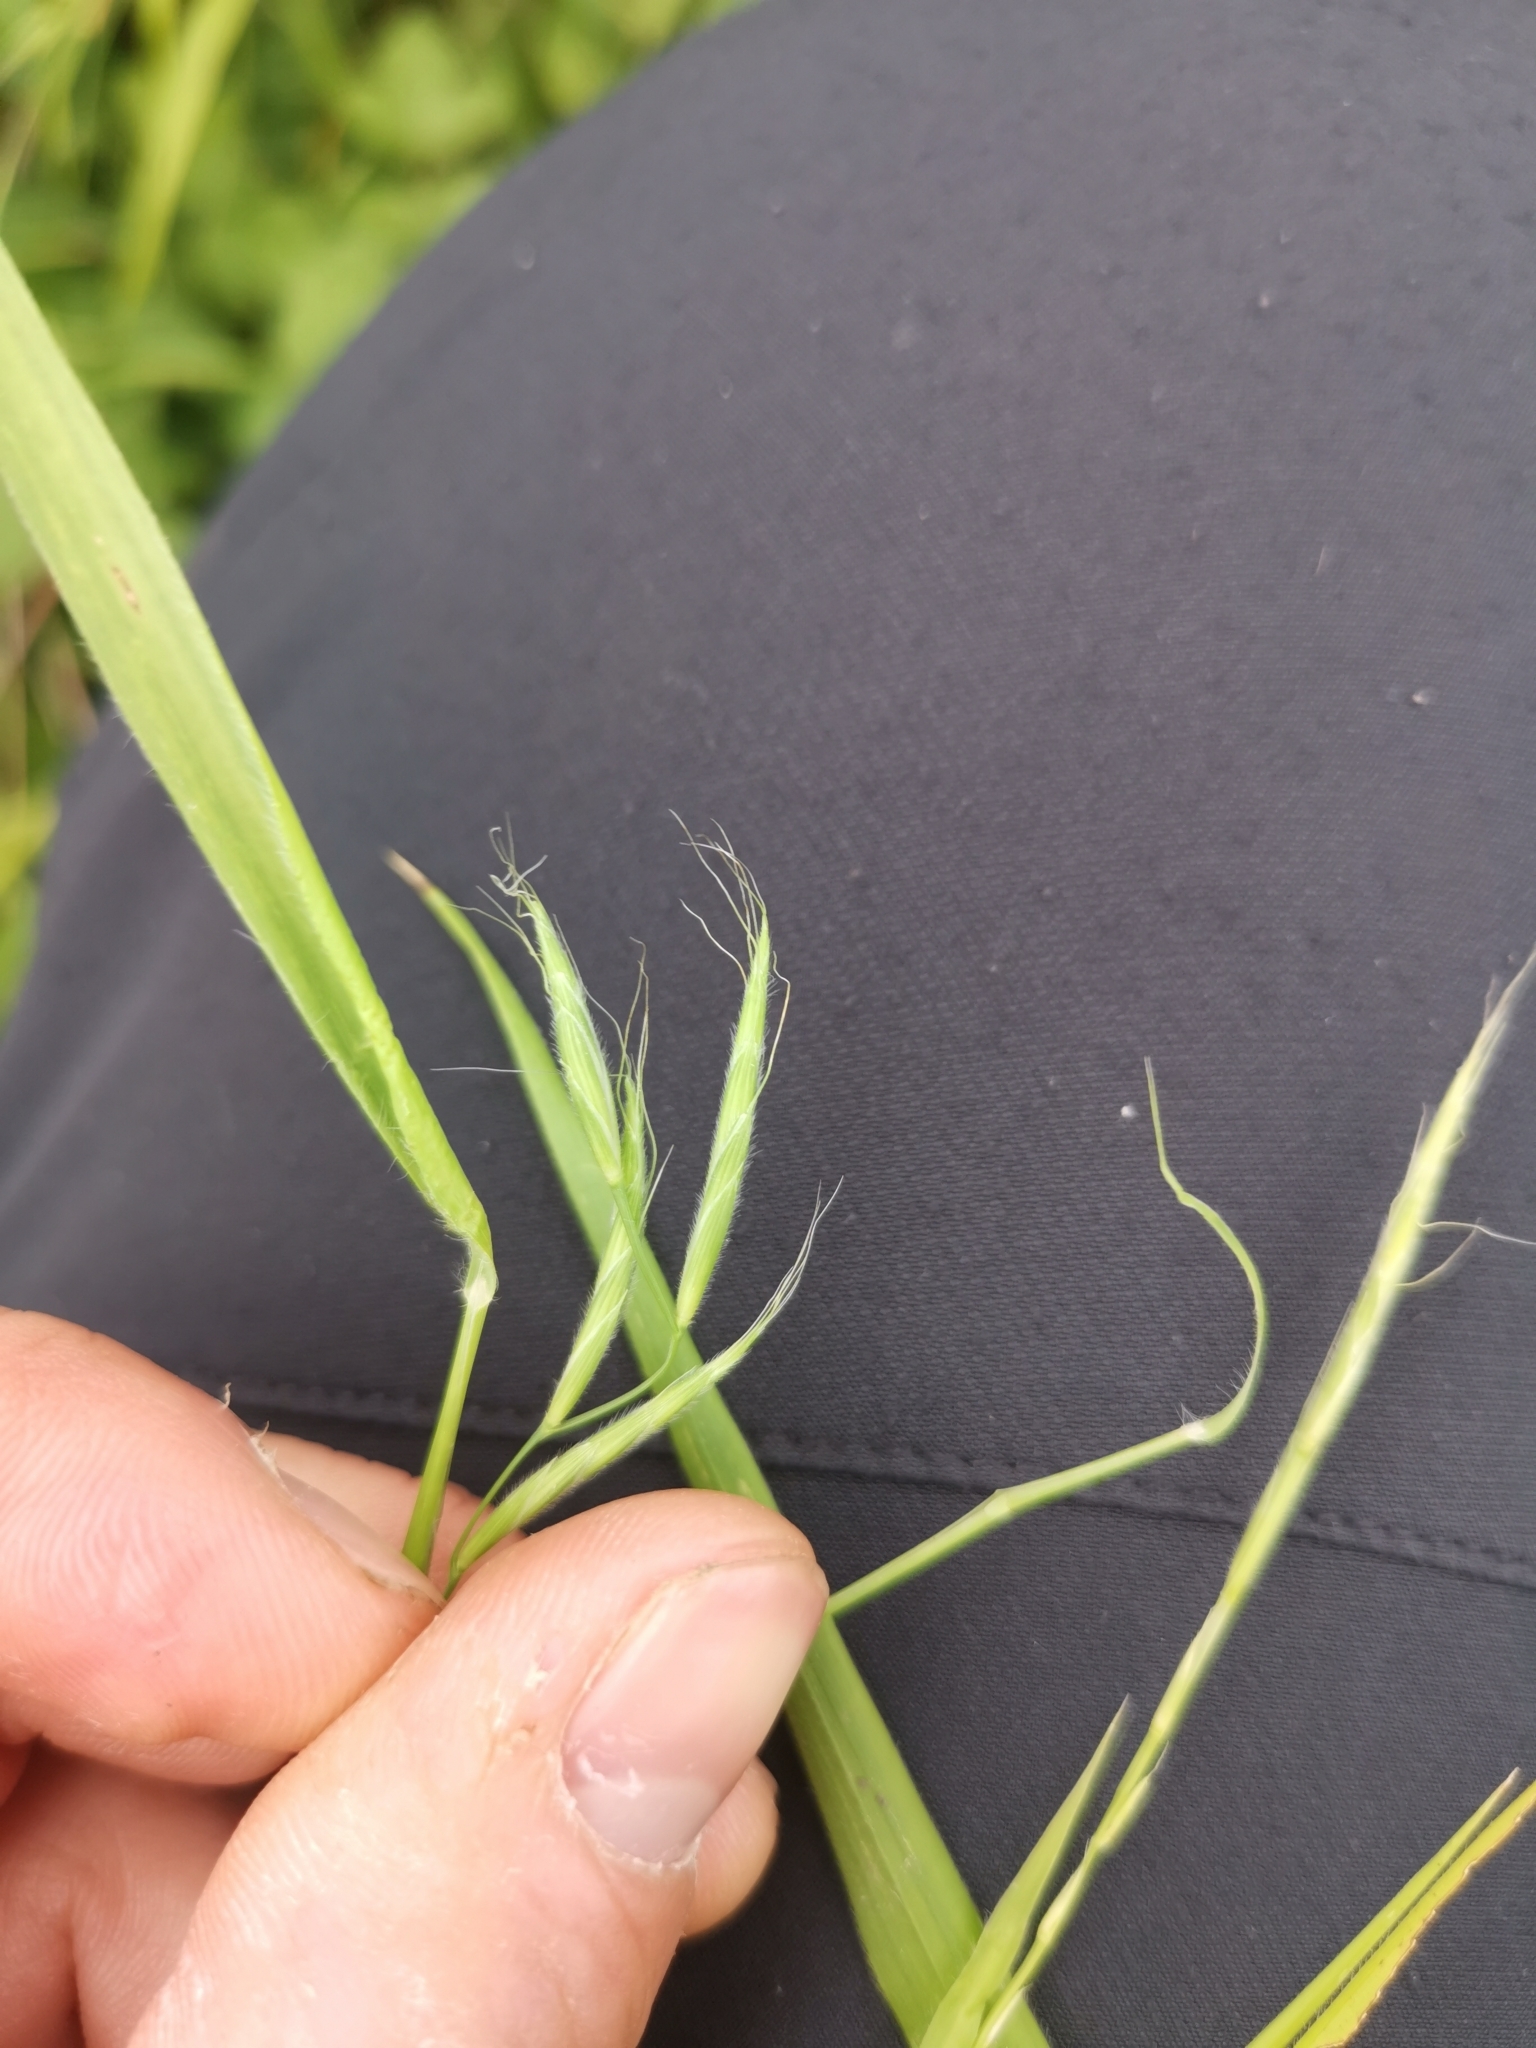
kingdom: Plantae
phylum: Tracheophyta
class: Liliopsida
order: Poales
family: Poaceae
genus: Brachypodium
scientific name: Brachypodium sylvaticum
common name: False-brome
